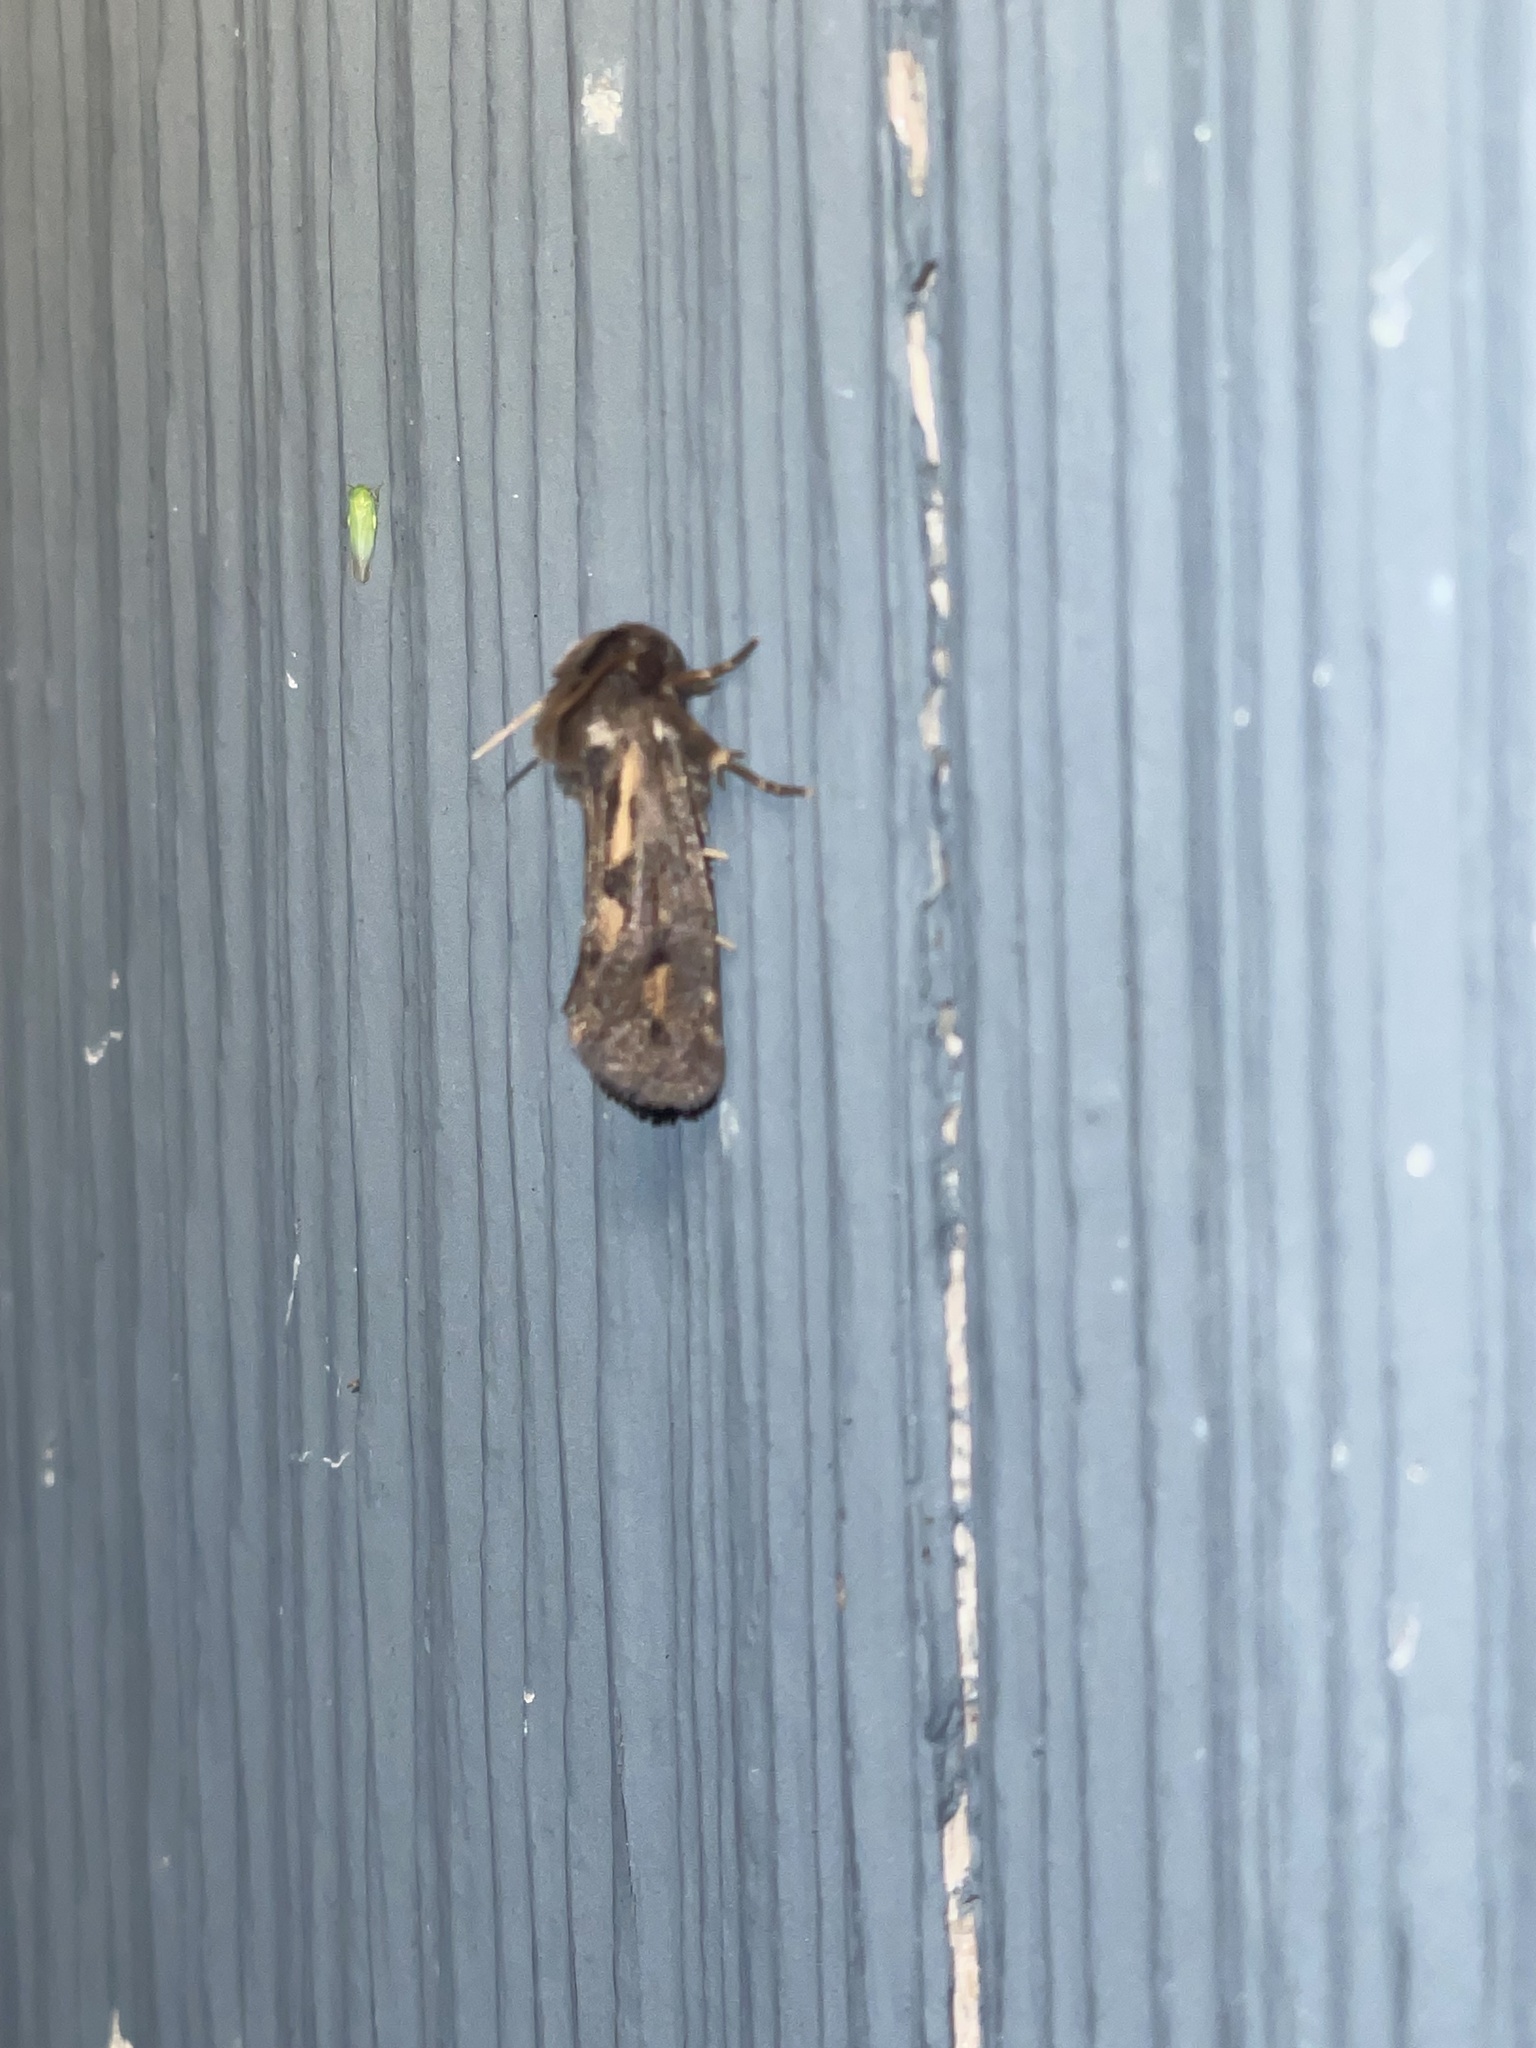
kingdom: Animalia
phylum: Arthropoda
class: Insecta
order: Lepidoptera
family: Tineidae
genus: Acrolophus
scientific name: Acrolophus popeanella
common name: Clemens' grass tubeworm moth
